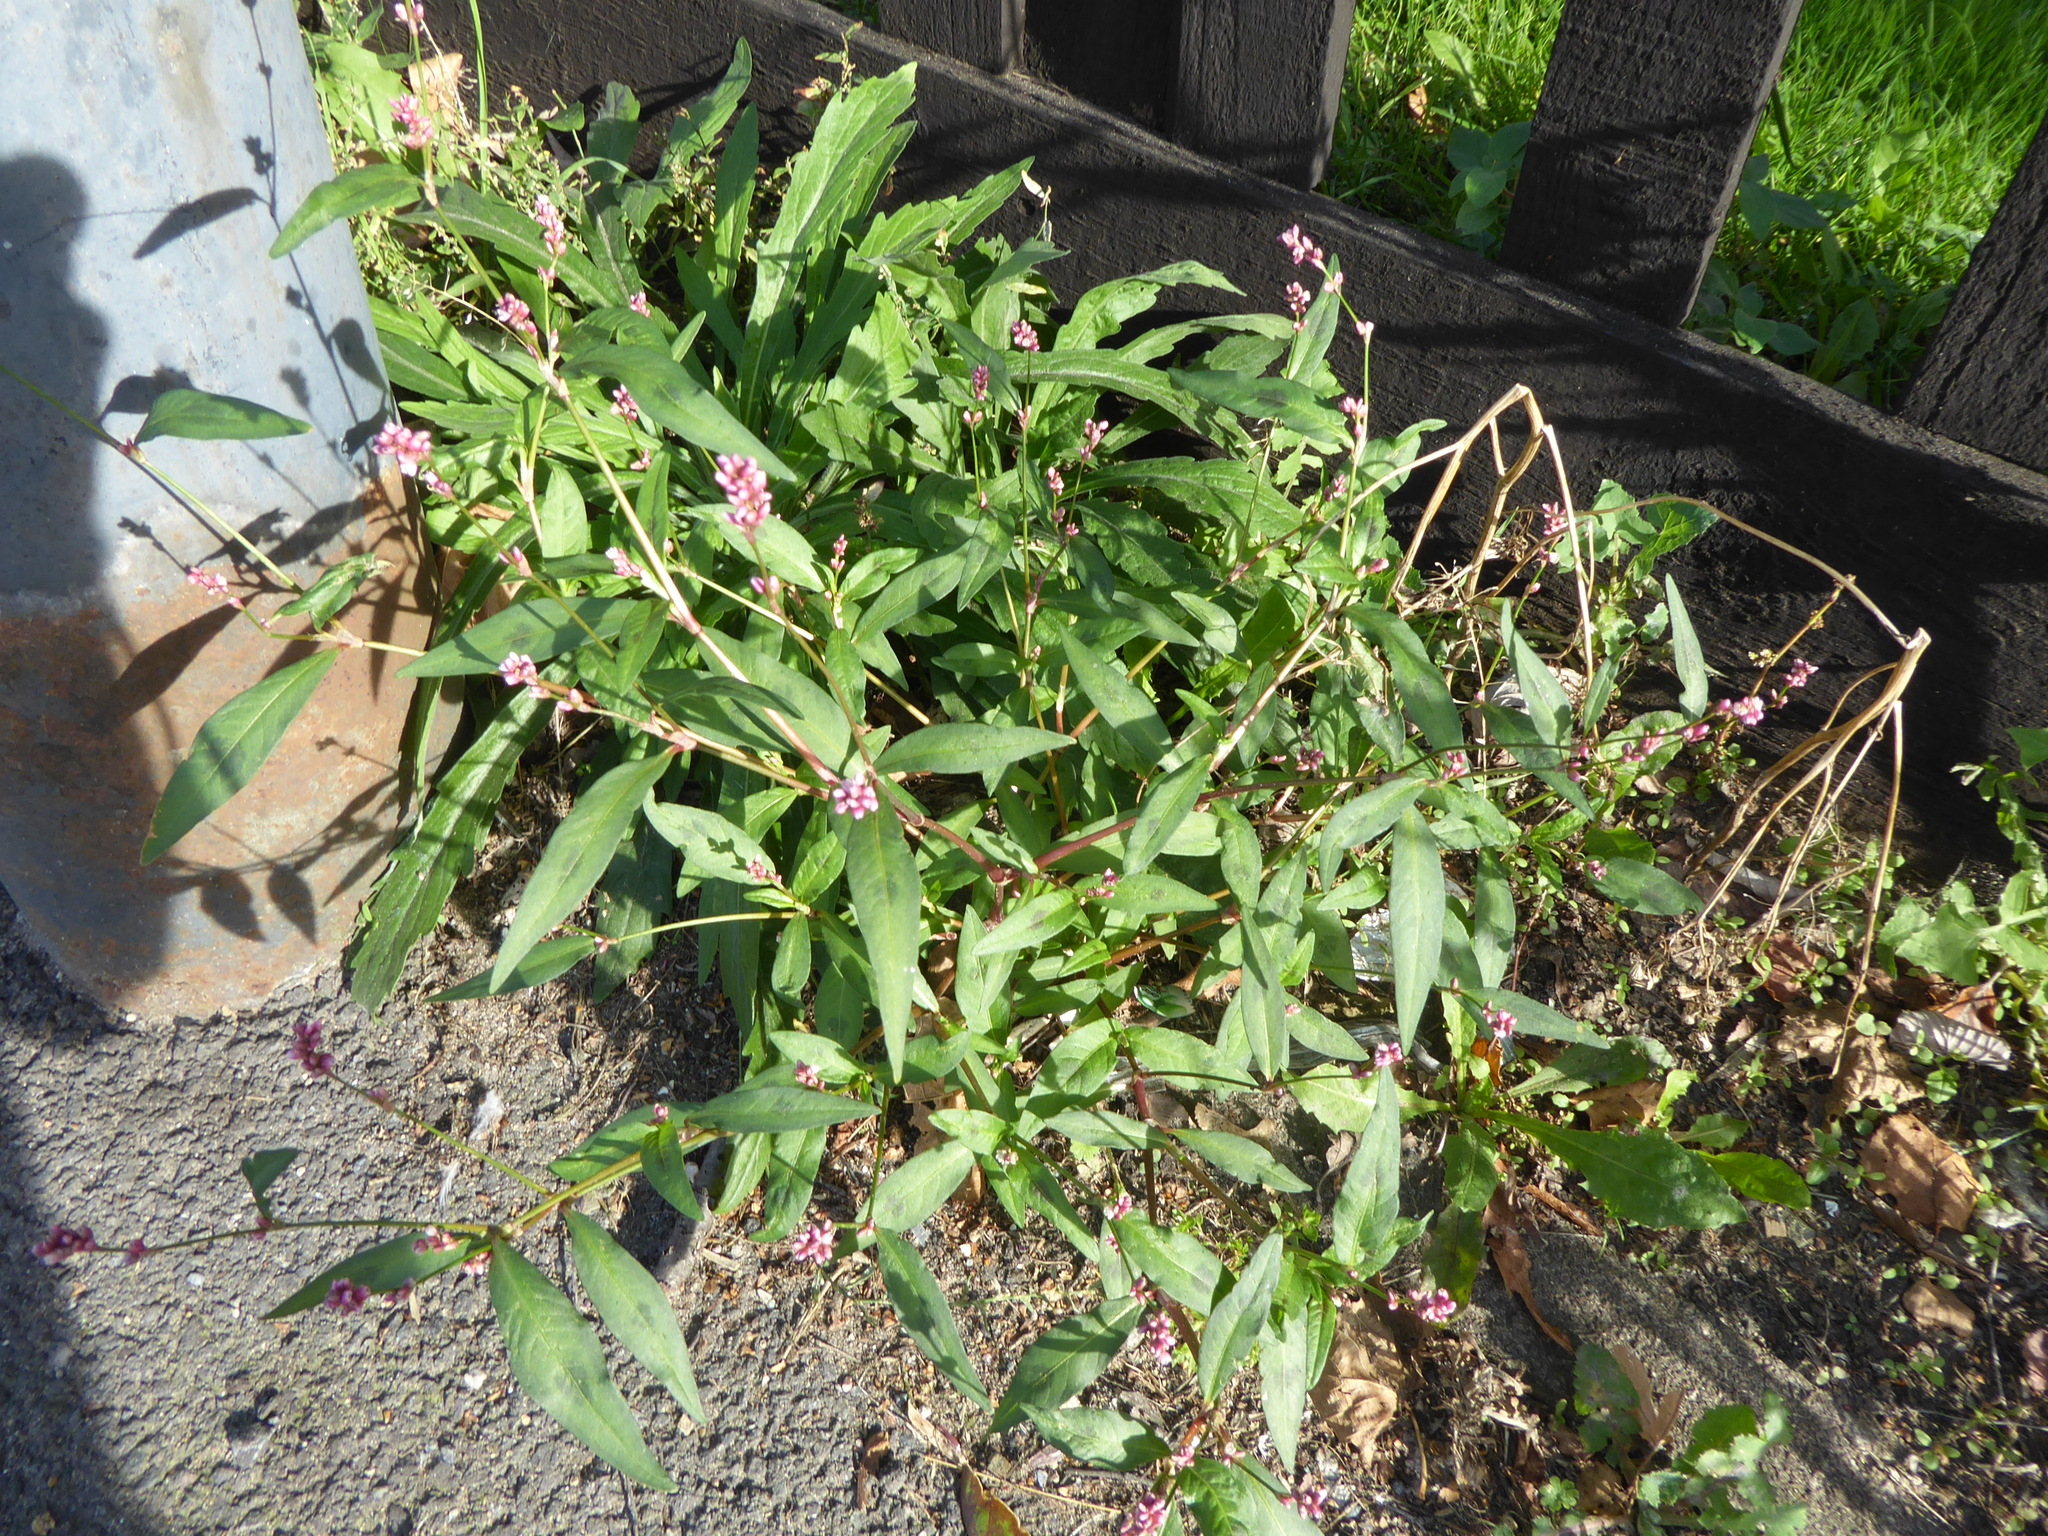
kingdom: Plantae
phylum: Tracheophyta
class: Magnoliopsida
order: Caryophyllales
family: Polygonaceae
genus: Persicaria
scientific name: Persicaria maculosa
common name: Redshank
